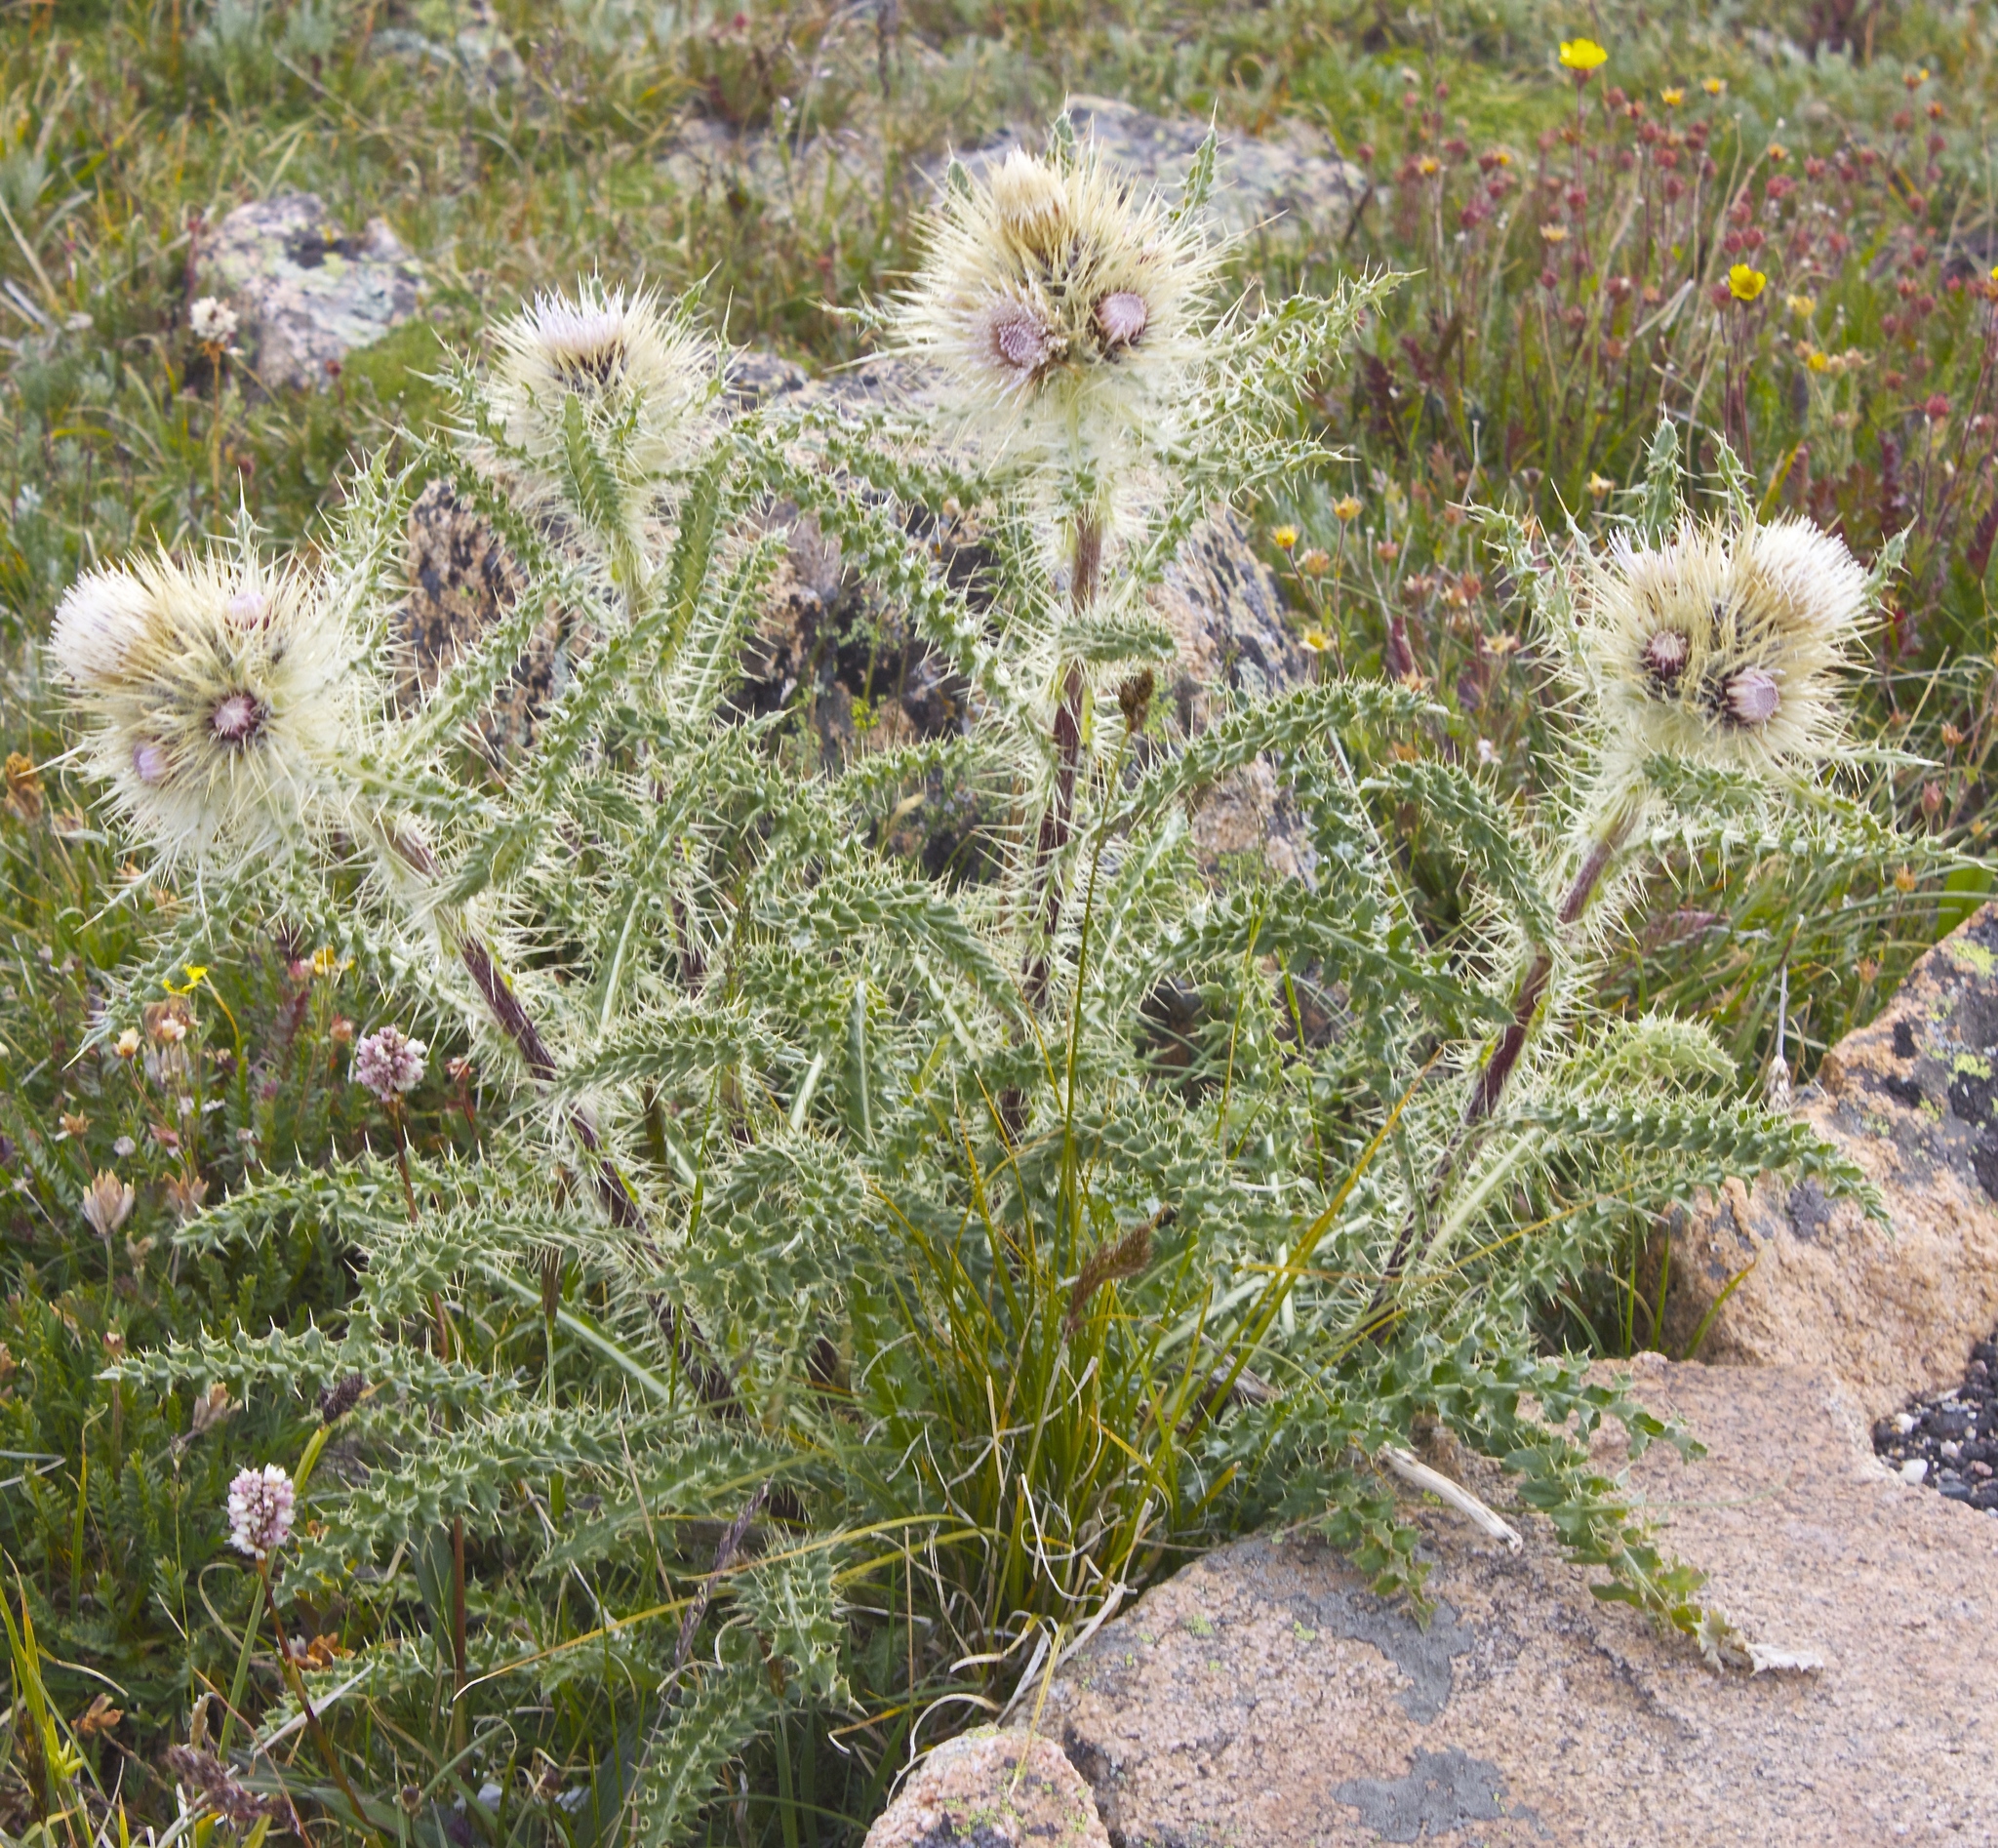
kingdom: Plantae
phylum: Tracheophyta
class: Magnoliopsida
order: Asterales
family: Asteraceae
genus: Cirsium
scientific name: Cirsium scopulorum
